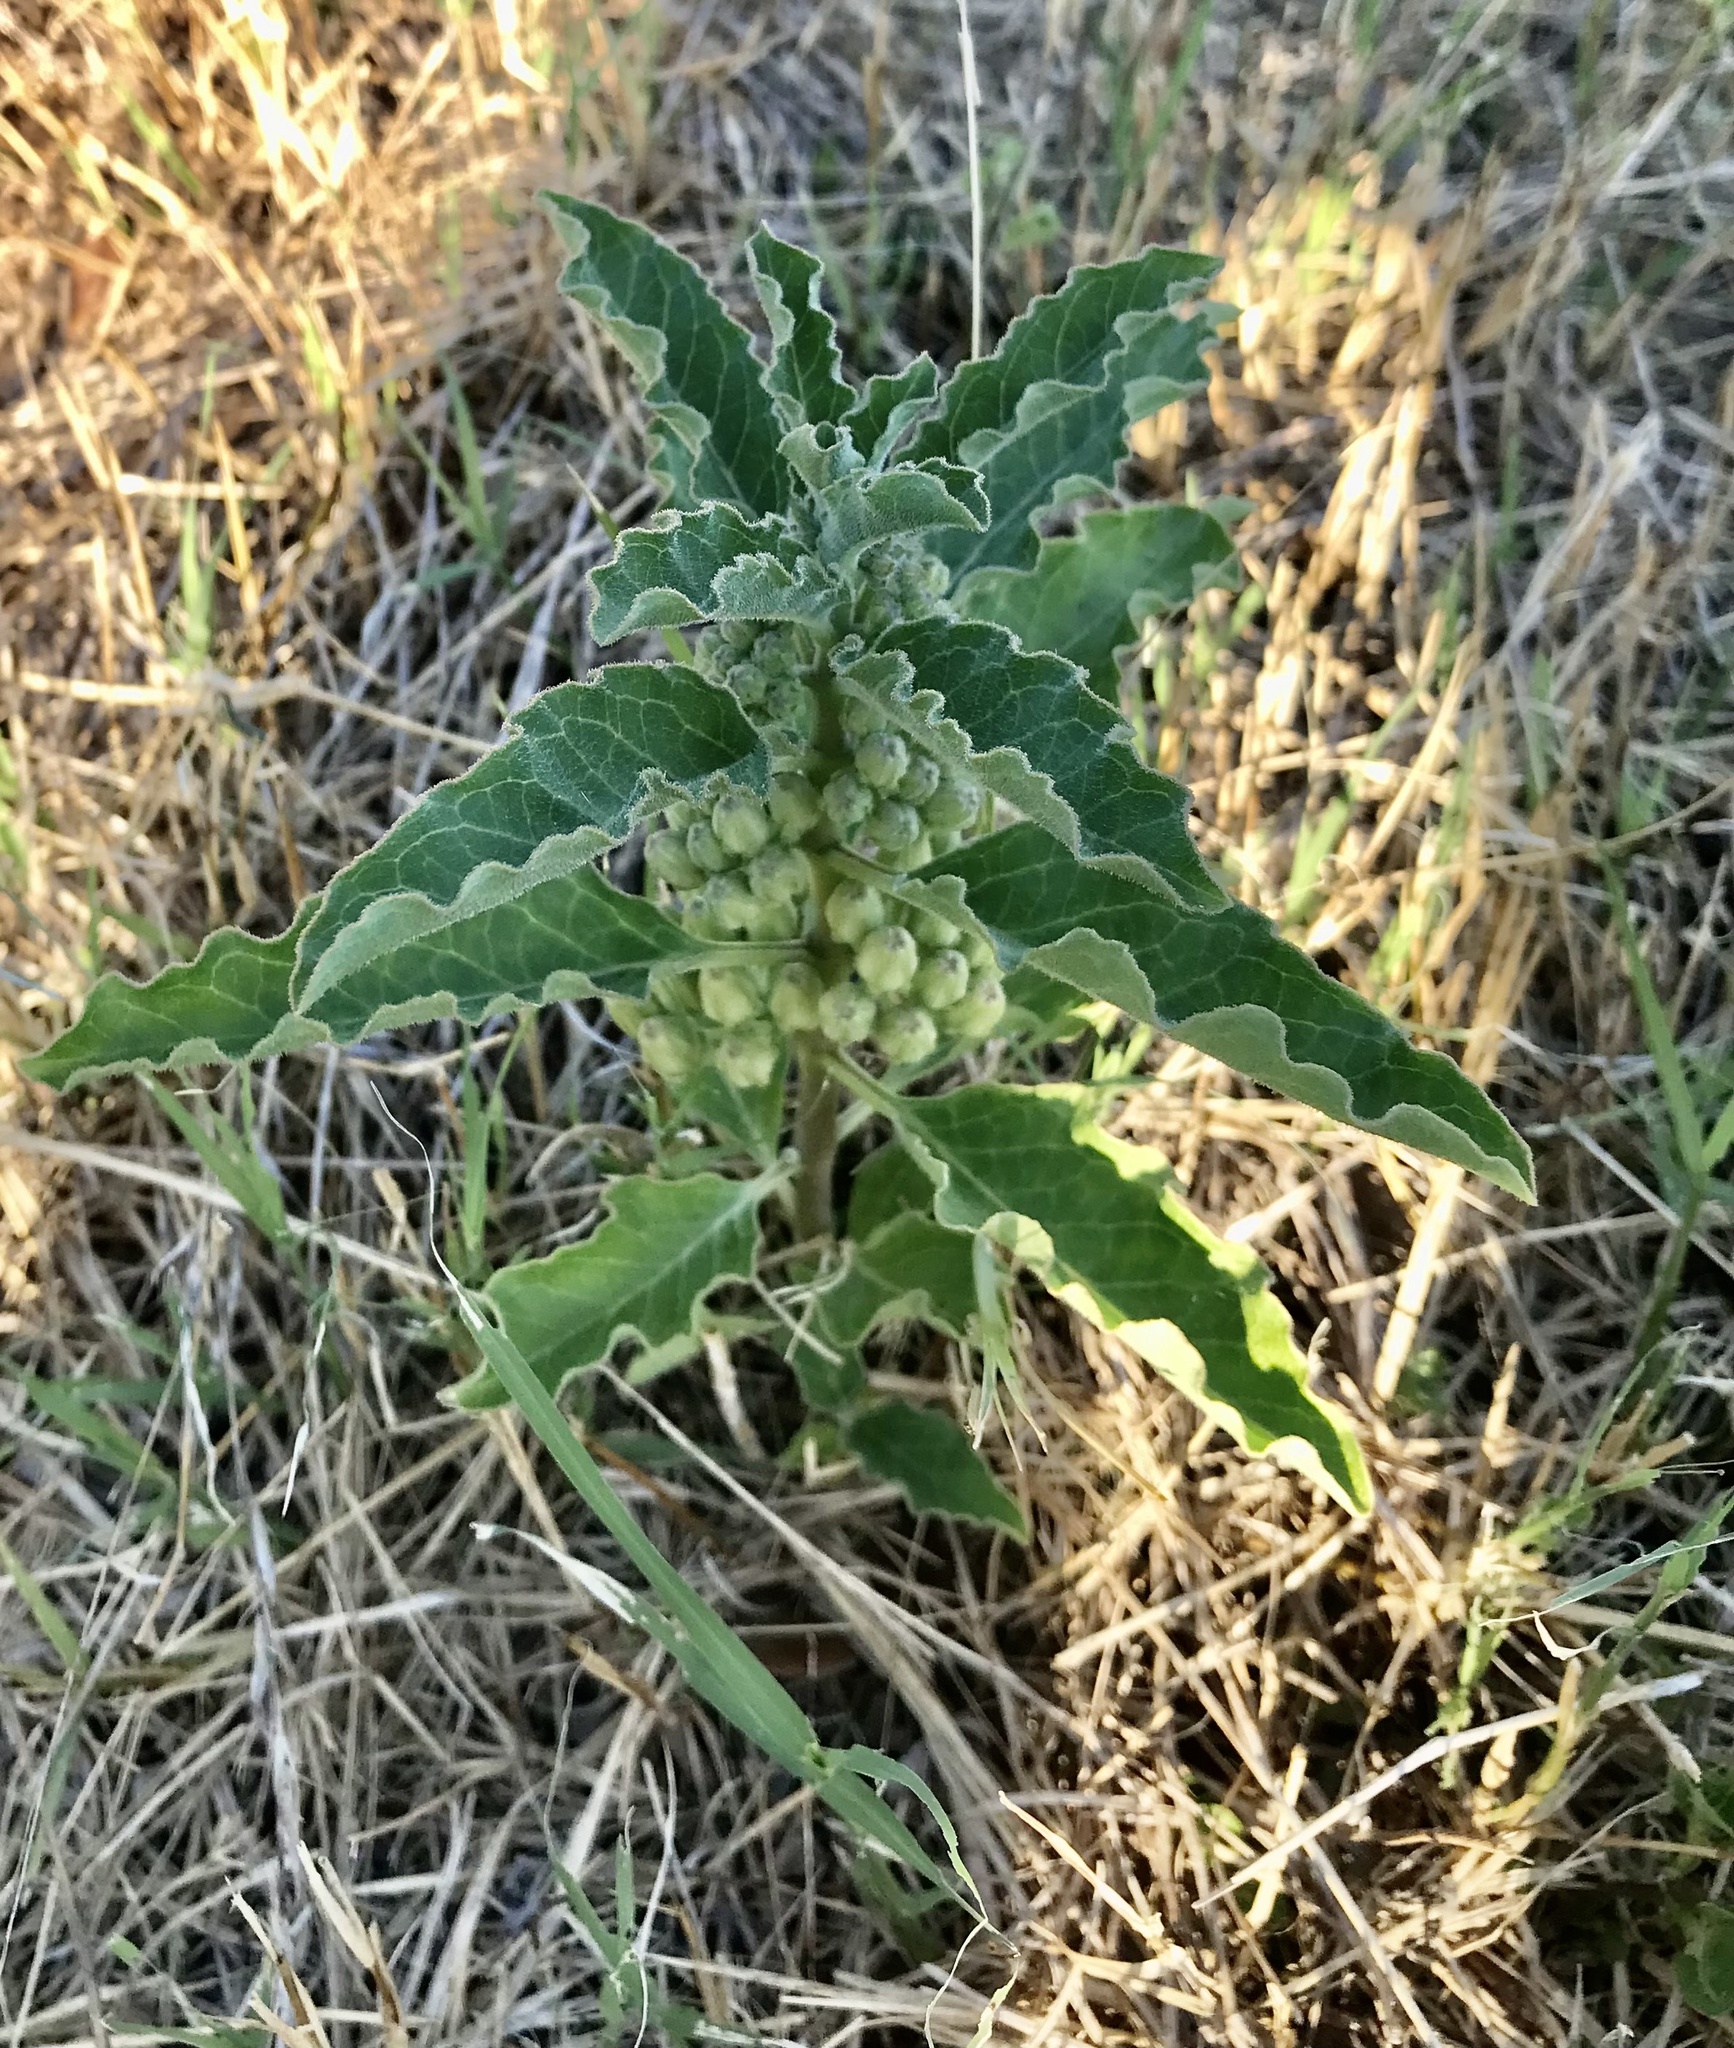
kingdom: Plantae
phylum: Tracheophyta
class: Magnoliopsida
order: Gentianales
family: Apocynaceae
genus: Asclepias
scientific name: Asclepias oenotheroides
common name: Zizotes milkweed
